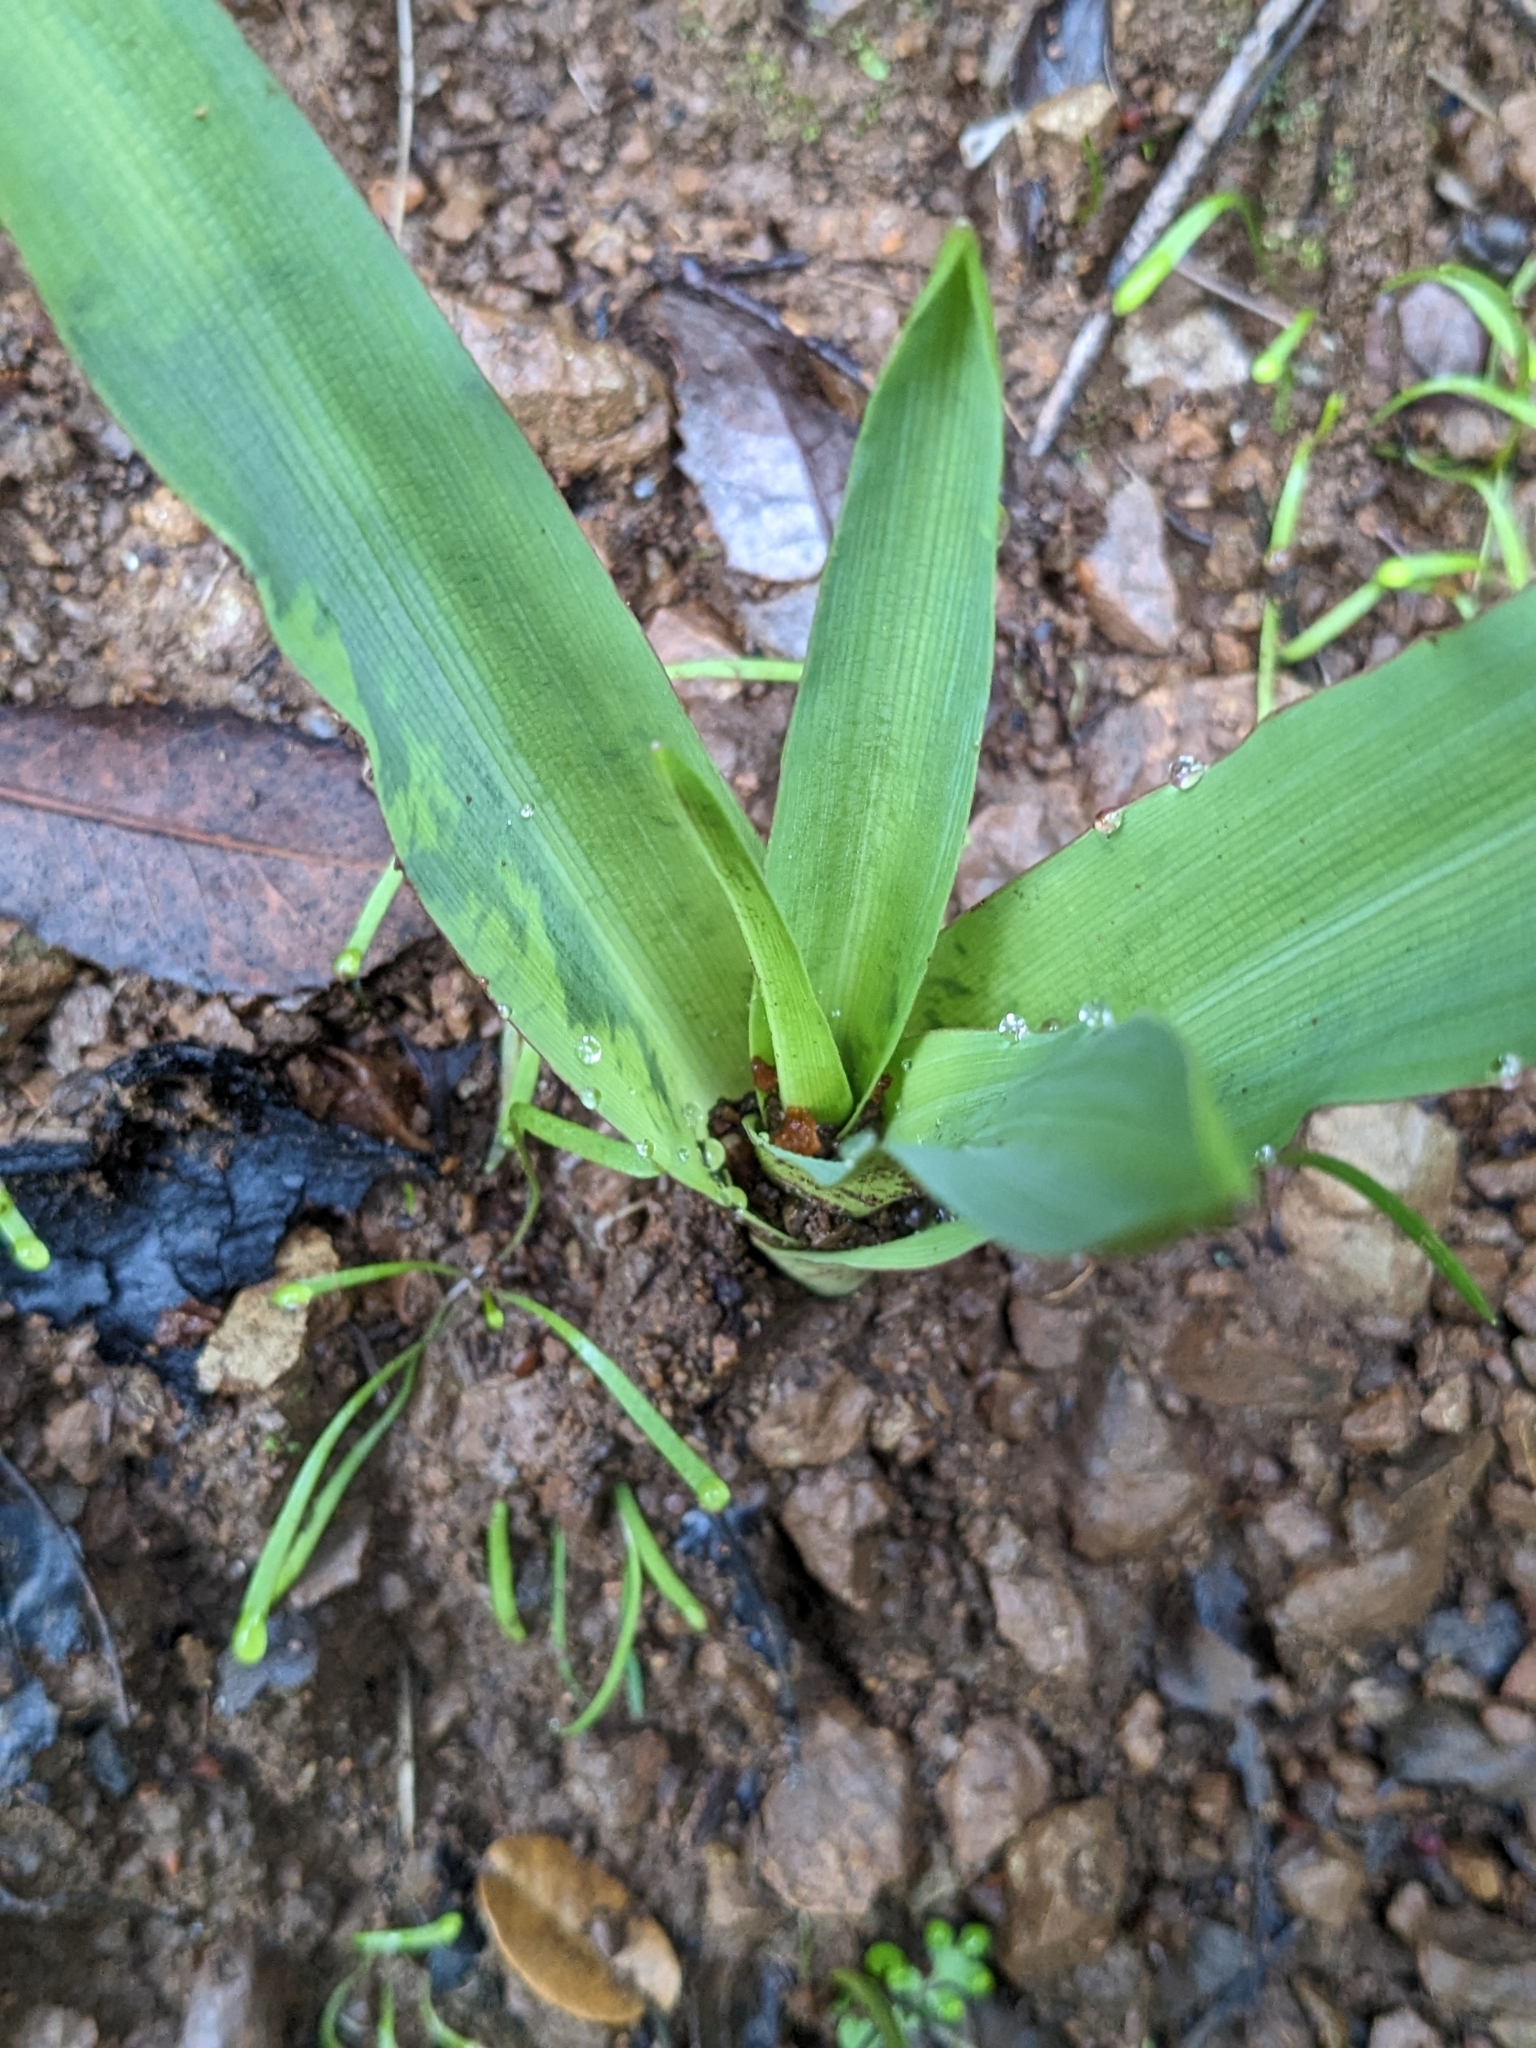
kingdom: Plantae
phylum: Tracheophyta
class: Liliopsida
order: Asparagales
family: Asparagaceae
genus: Chlorogalum
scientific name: Chlorogalum pomeridianum
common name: Amole
